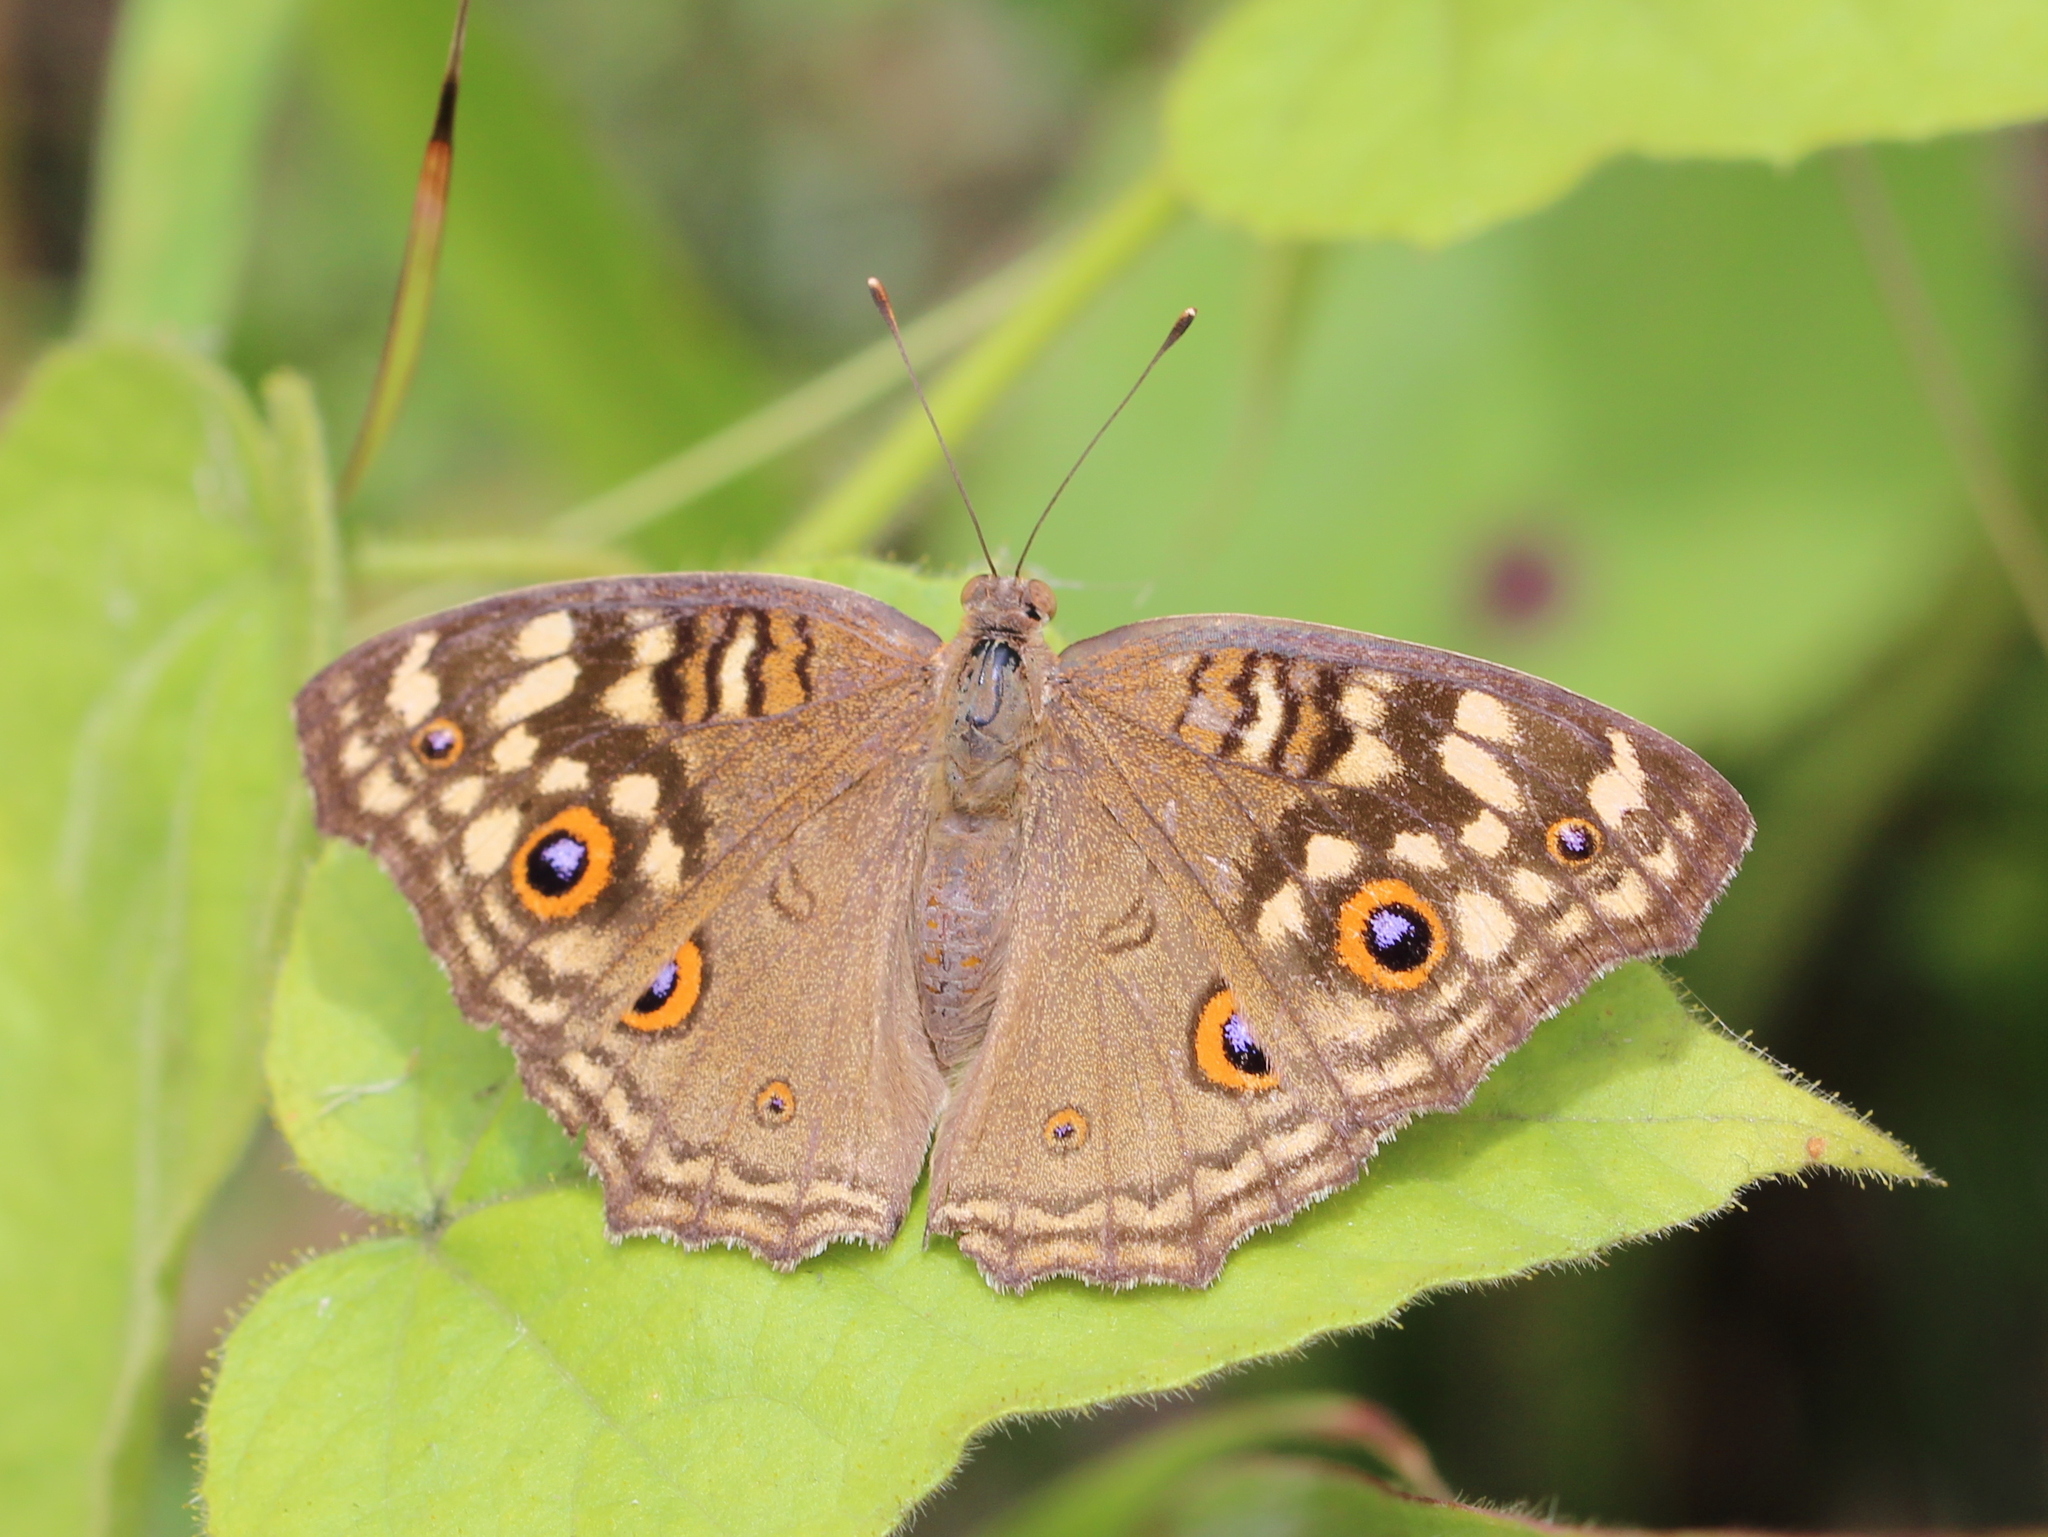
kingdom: Animalia
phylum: Arthropoda
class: Insecta
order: Lepidoptera
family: Nymphalidae
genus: Junonia
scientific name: Junonia lemonias
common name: Lemon pansy
